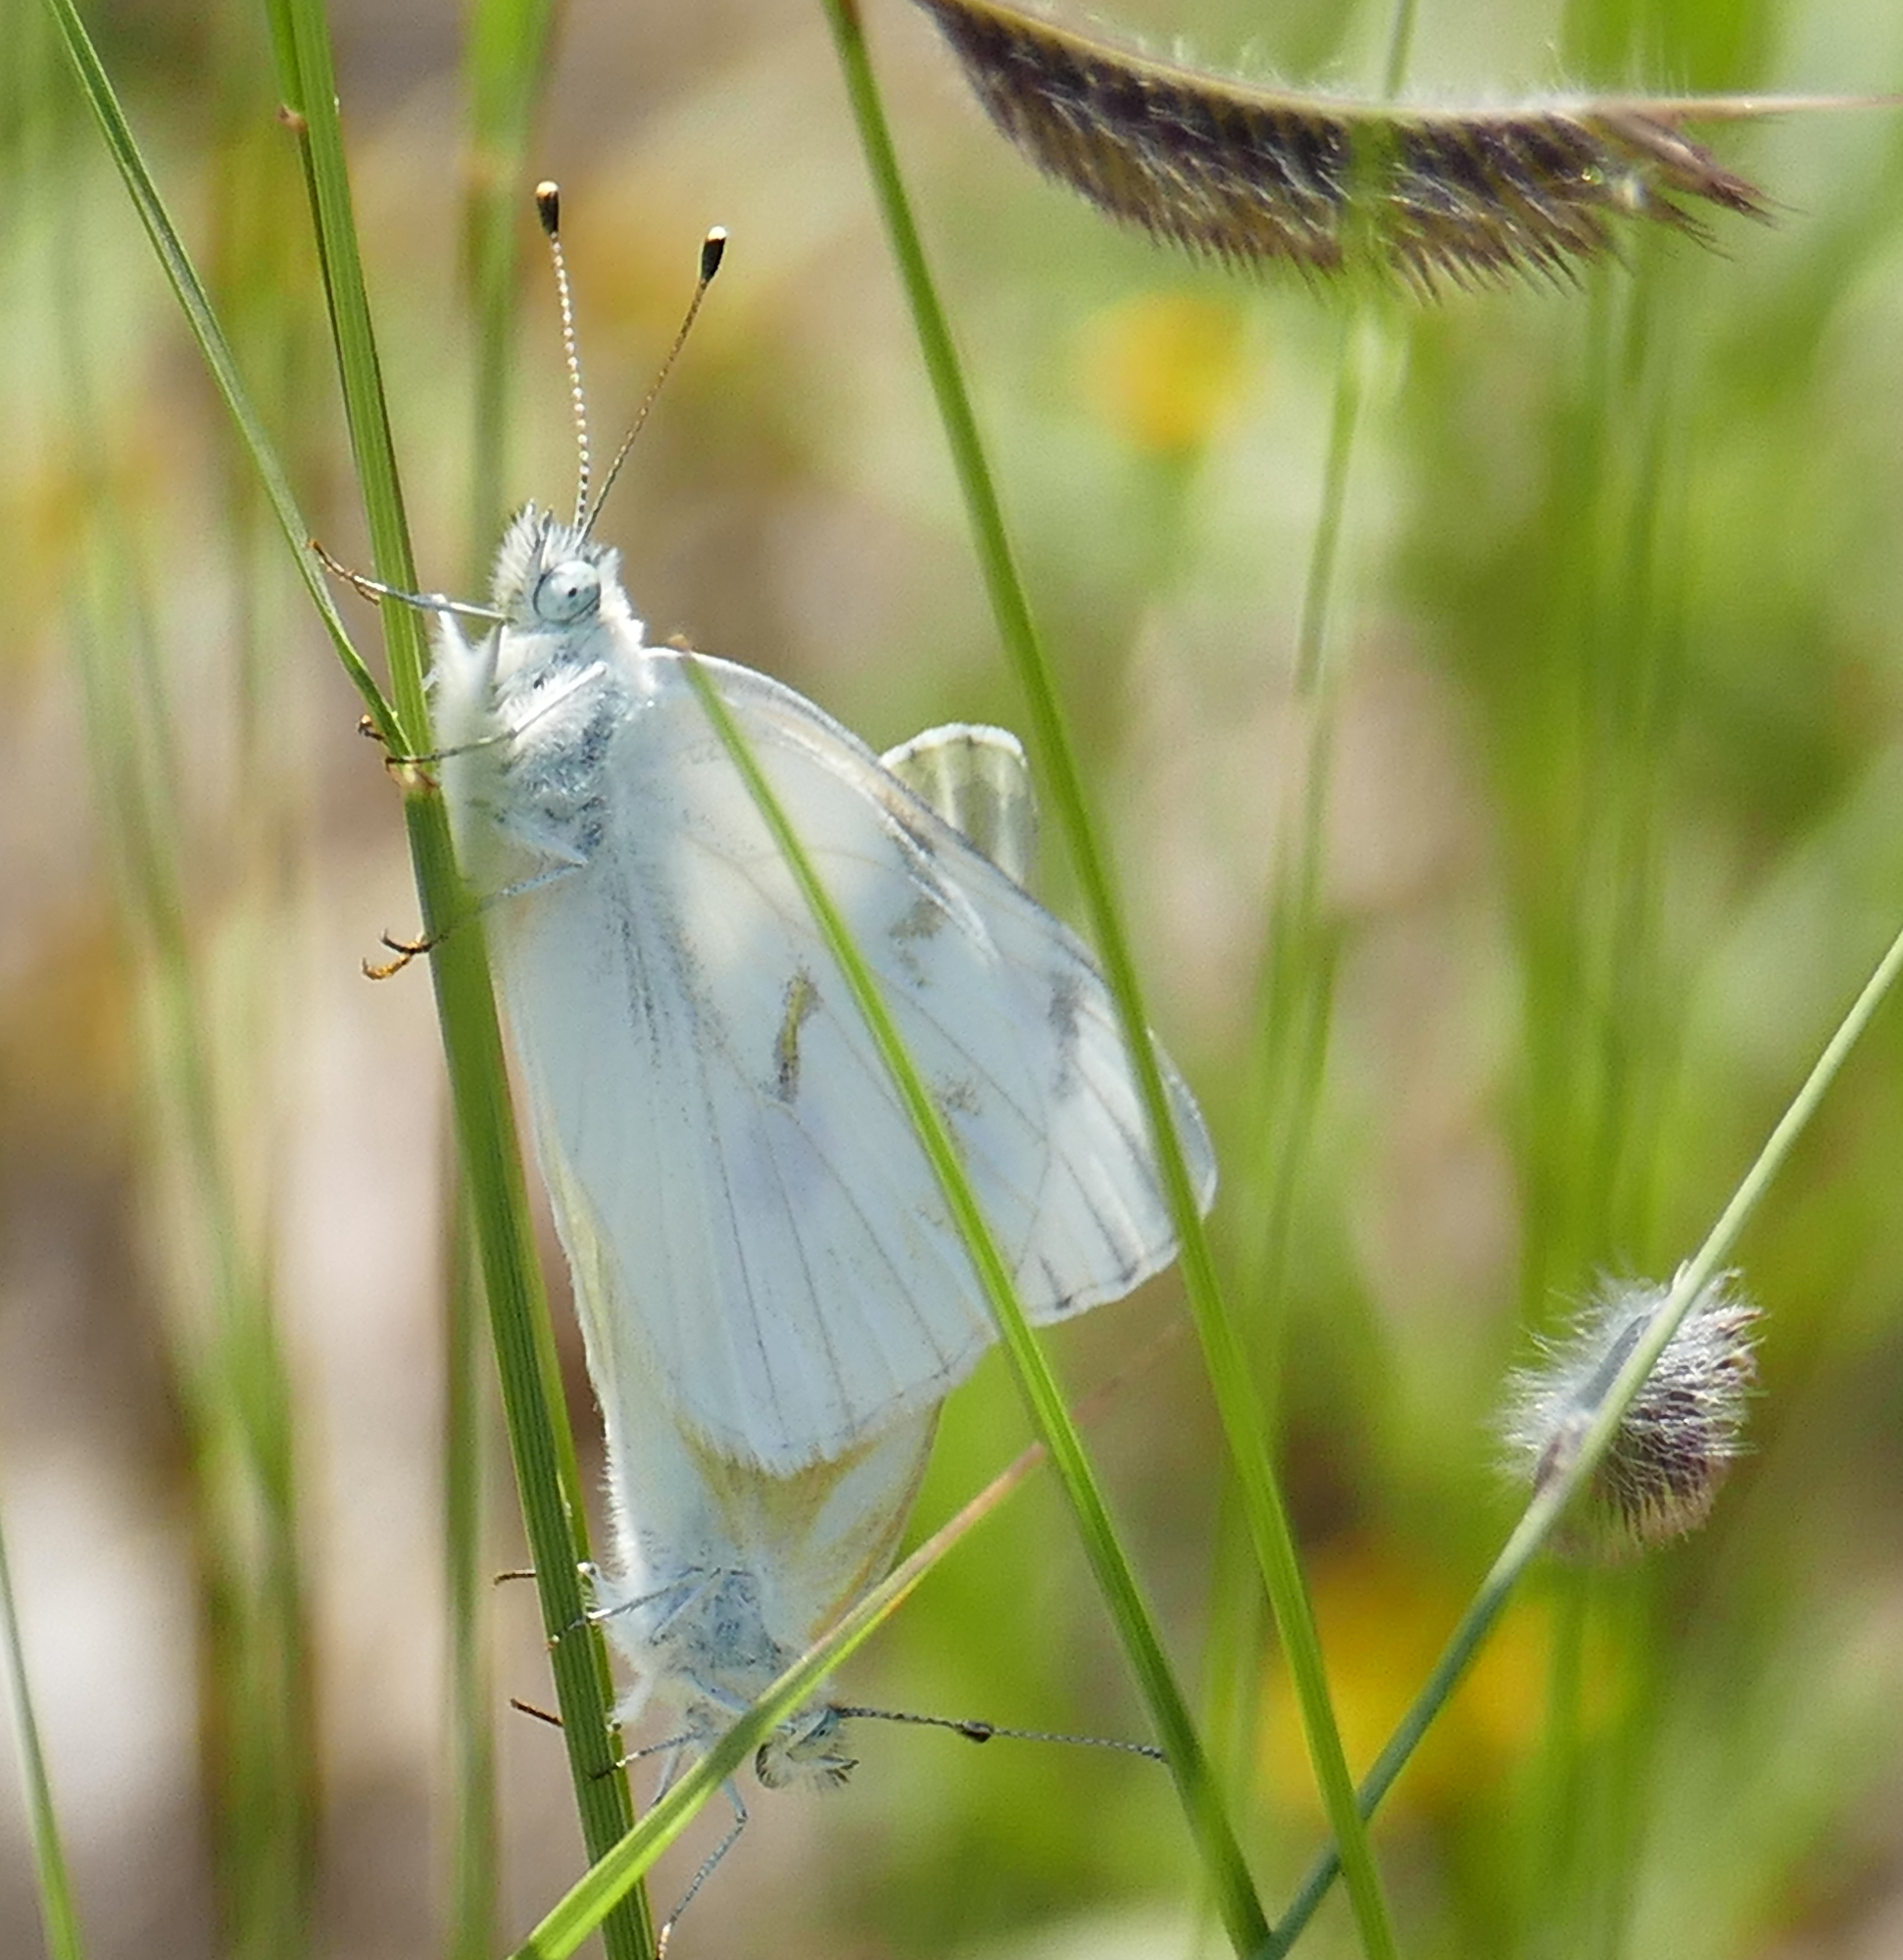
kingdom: Animalia
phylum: Arthropoda
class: Insecta
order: Lepidoptera
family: Pieridae
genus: Pontia
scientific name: Pontia protodice
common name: Checkered white
